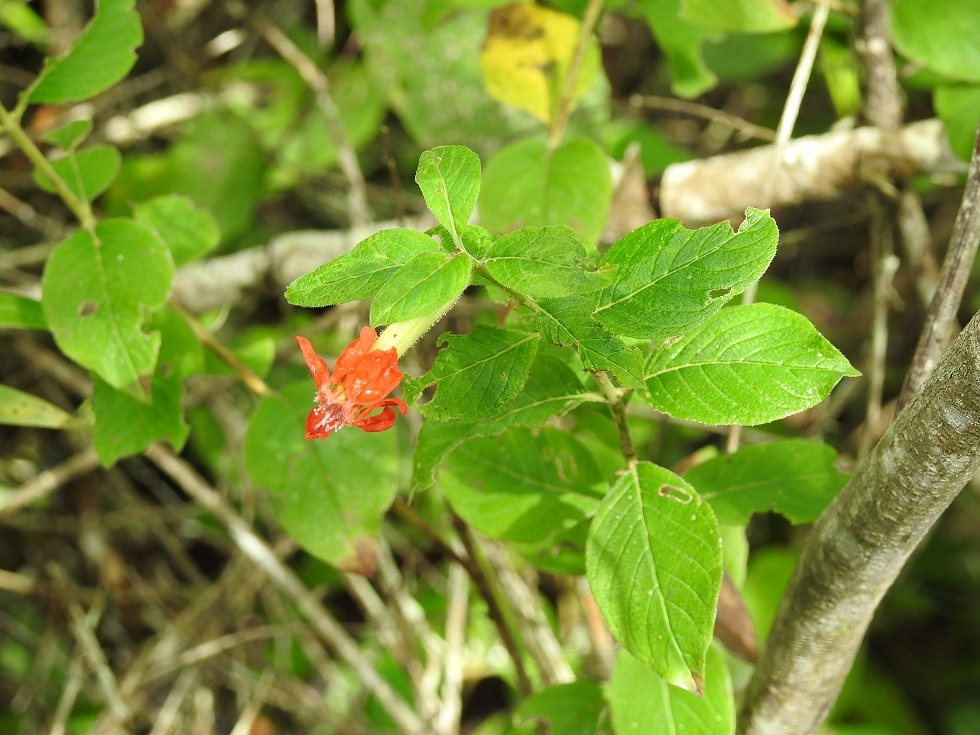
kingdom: Plantae
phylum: Tracheophyta
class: Magnoliopsida
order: Myrtales
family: Lythraceae
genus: Cuphea
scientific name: Cuphea intermedia
